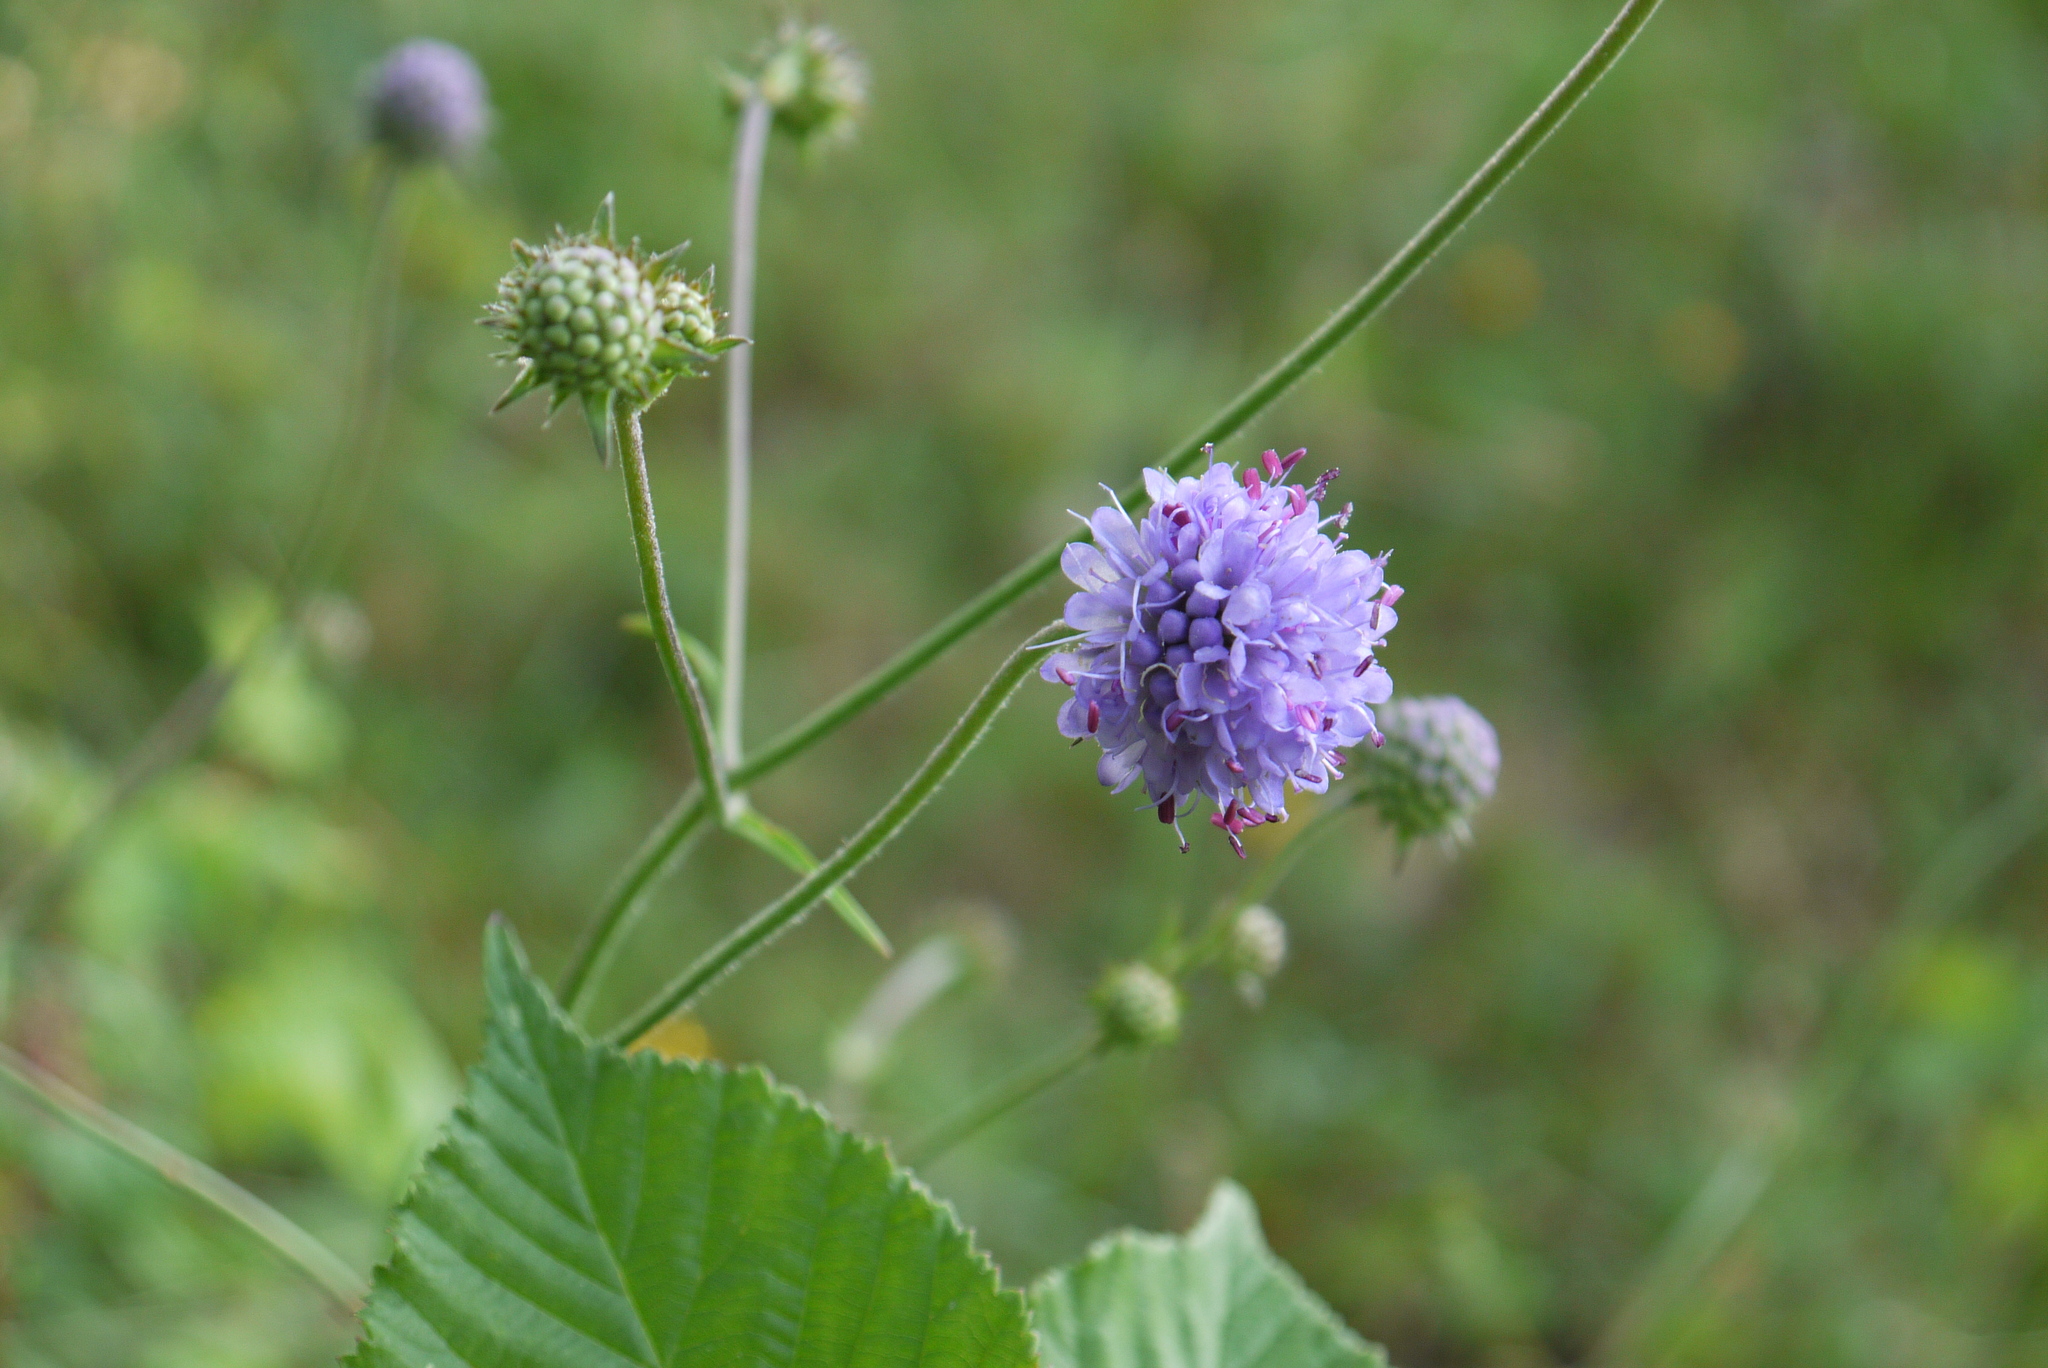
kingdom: Plantae
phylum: Tracheophyta
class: Magnoliopsida
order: Dipsacales
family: Caprifoliaceae
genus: Succisa
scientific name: Succisa pratensis
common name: Devil's-bit
